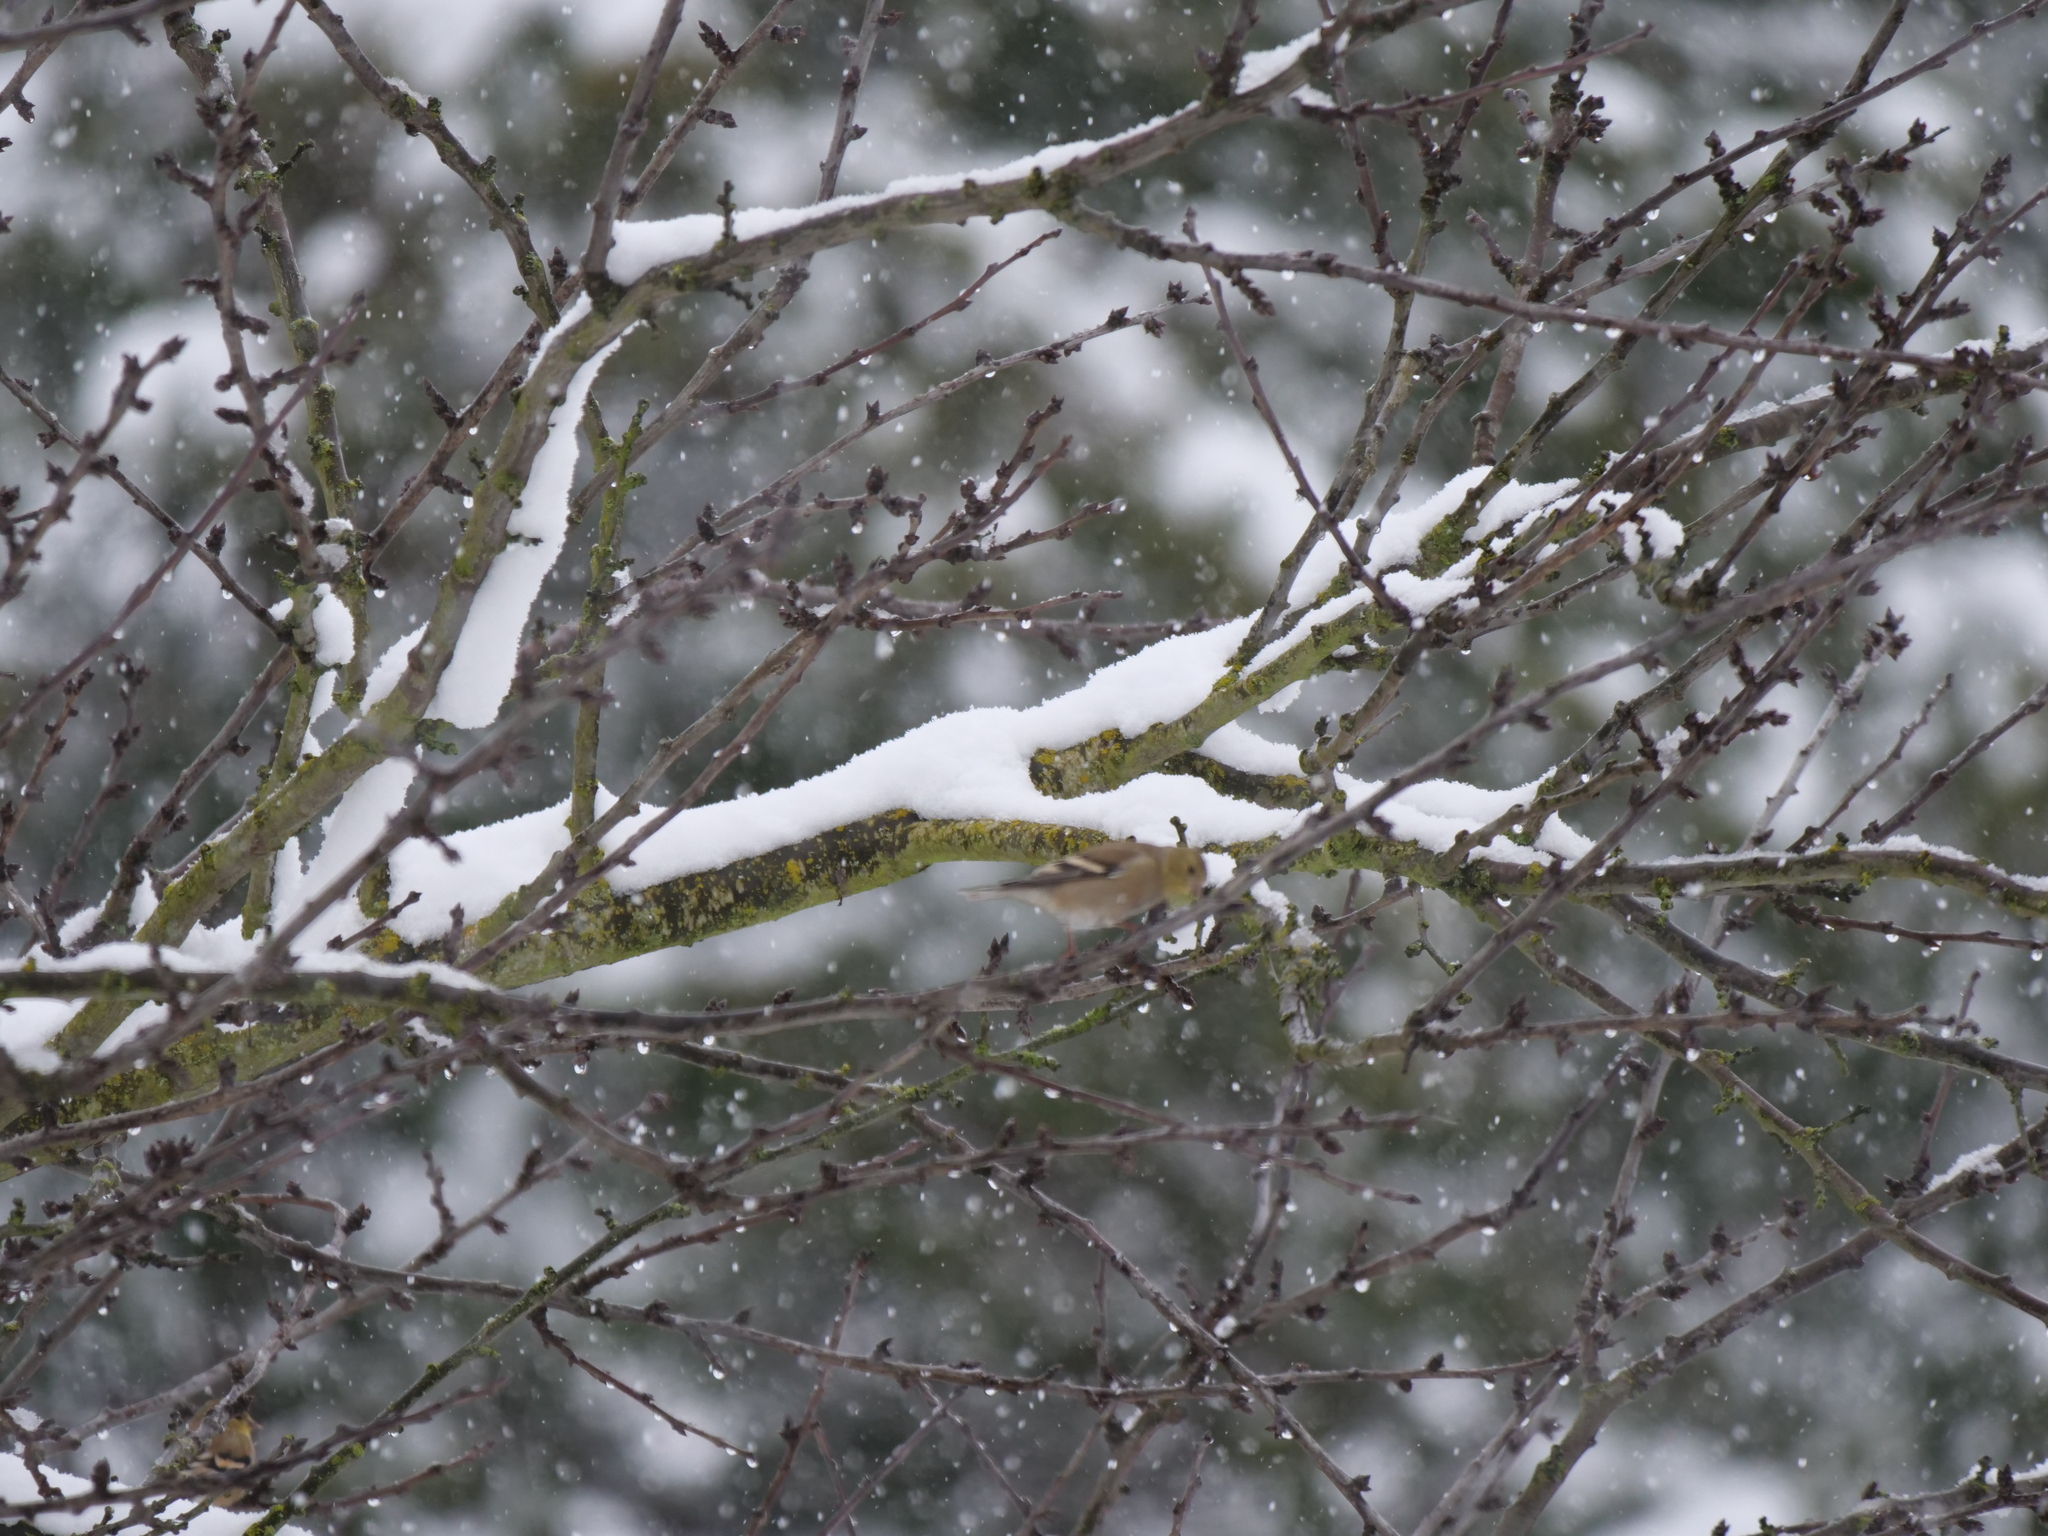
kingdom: Animalia
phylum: Chordata
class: Aves
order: Passeriformes
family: Fringillidae
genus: Spinus
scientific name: Spinus tristis
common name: American goldfinch
